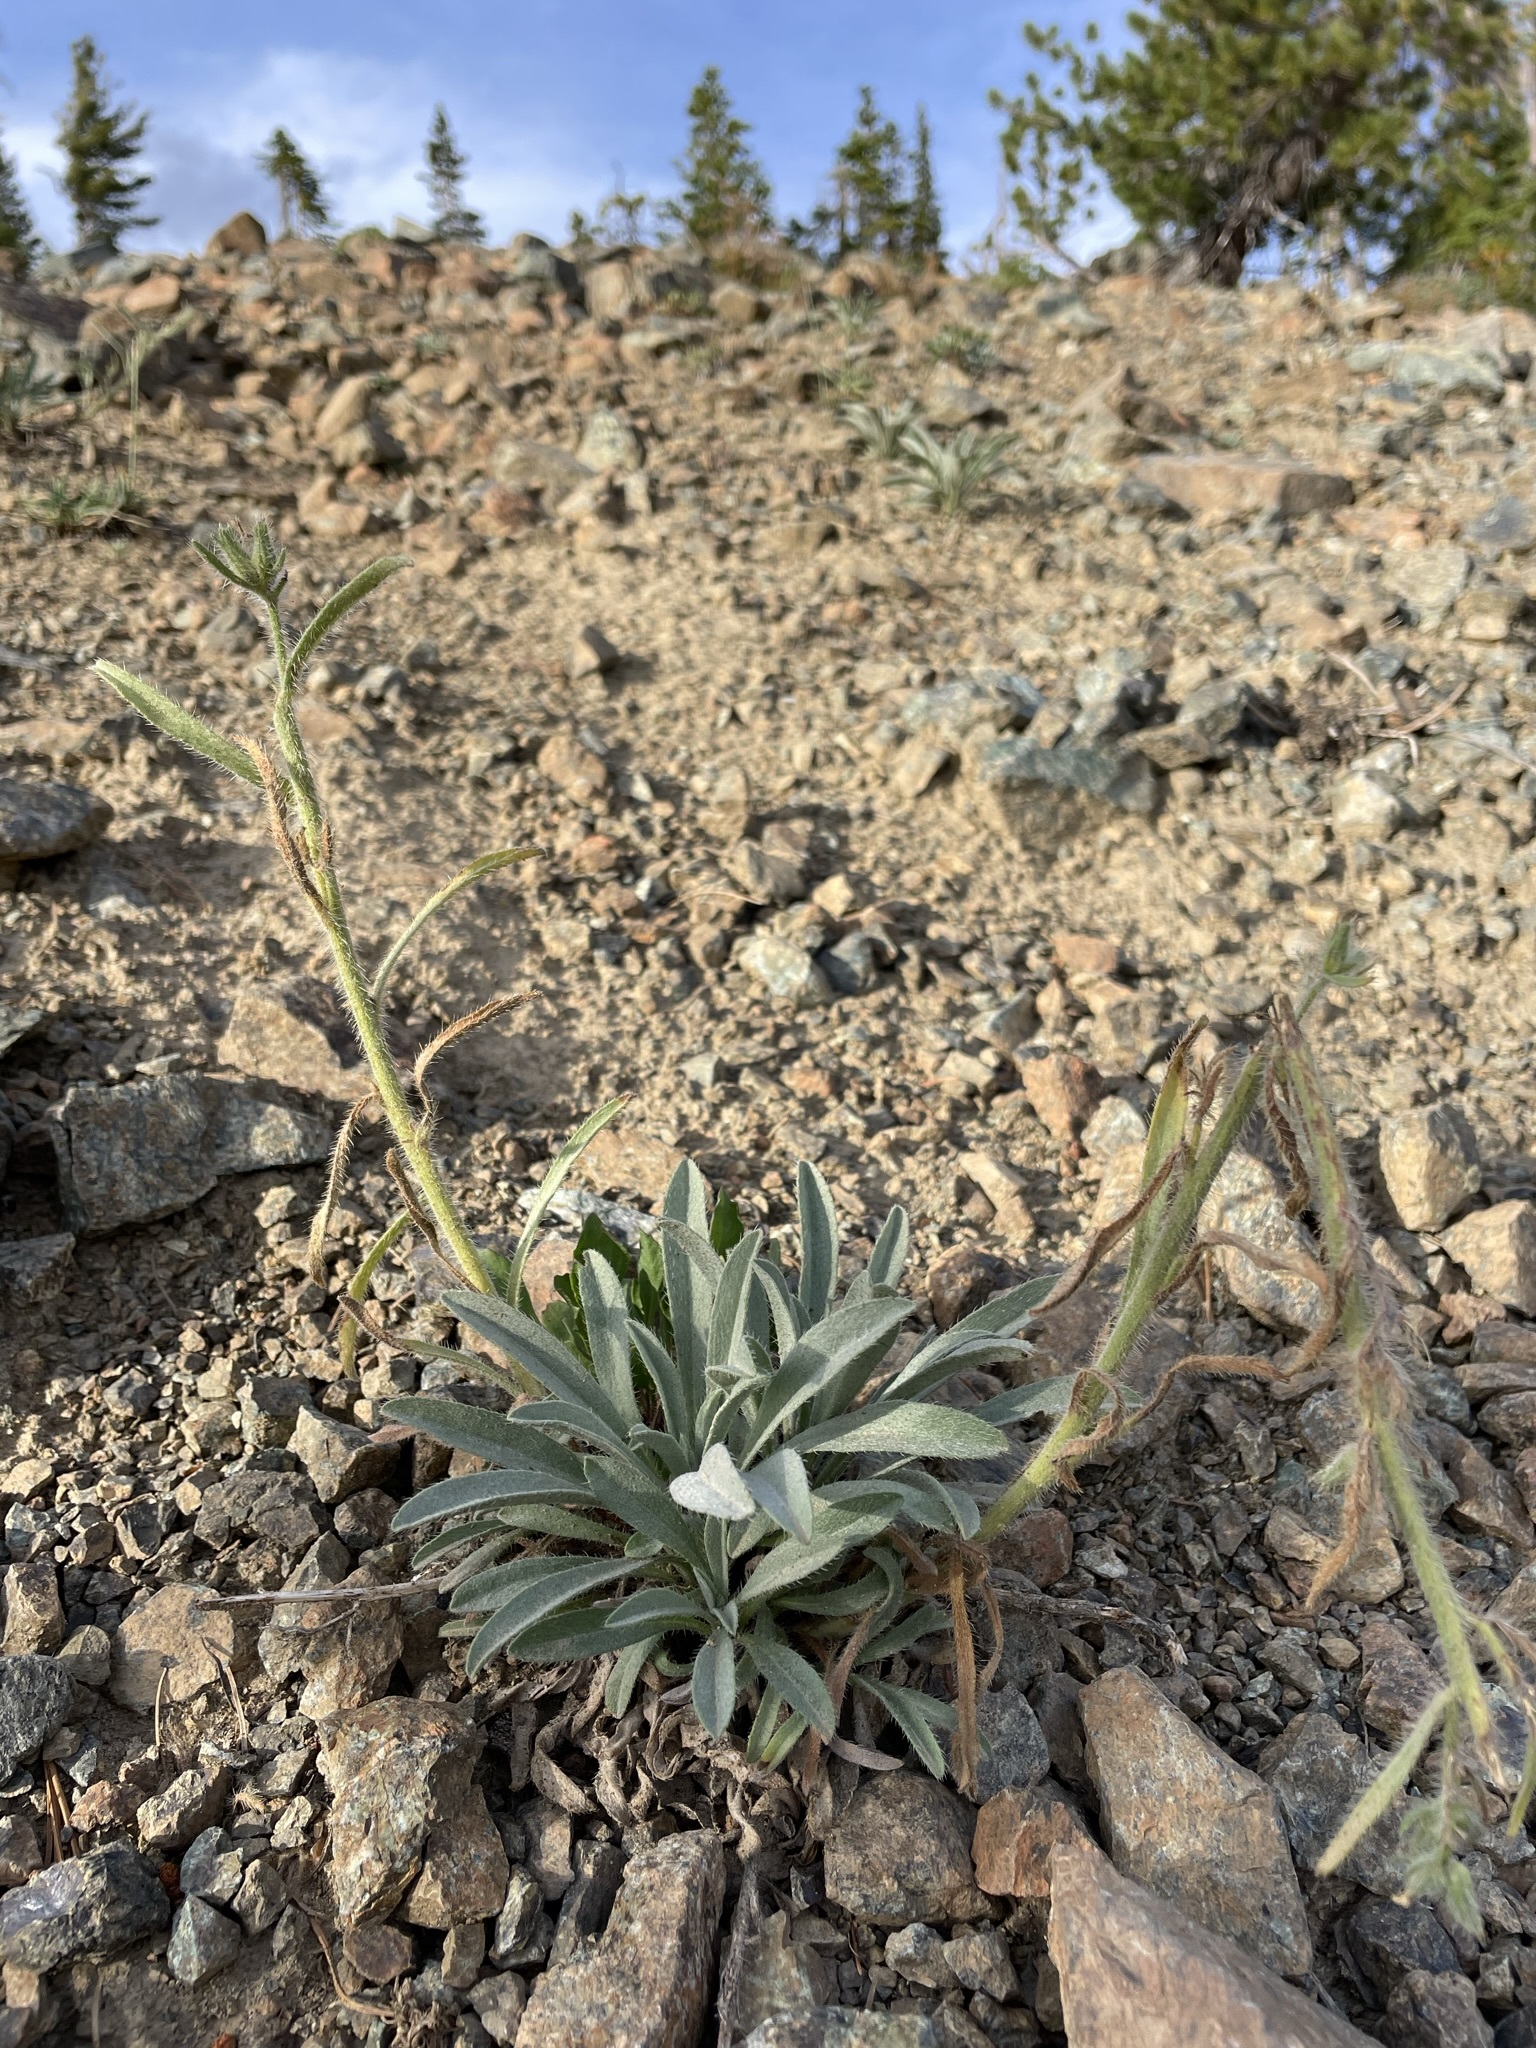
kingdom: Plantae
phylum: Tracheophyta
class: Magnoliopsida
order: Boraginales
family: Boraginaceae
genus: Oreocarya
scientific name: Oreocarya thompsonii
